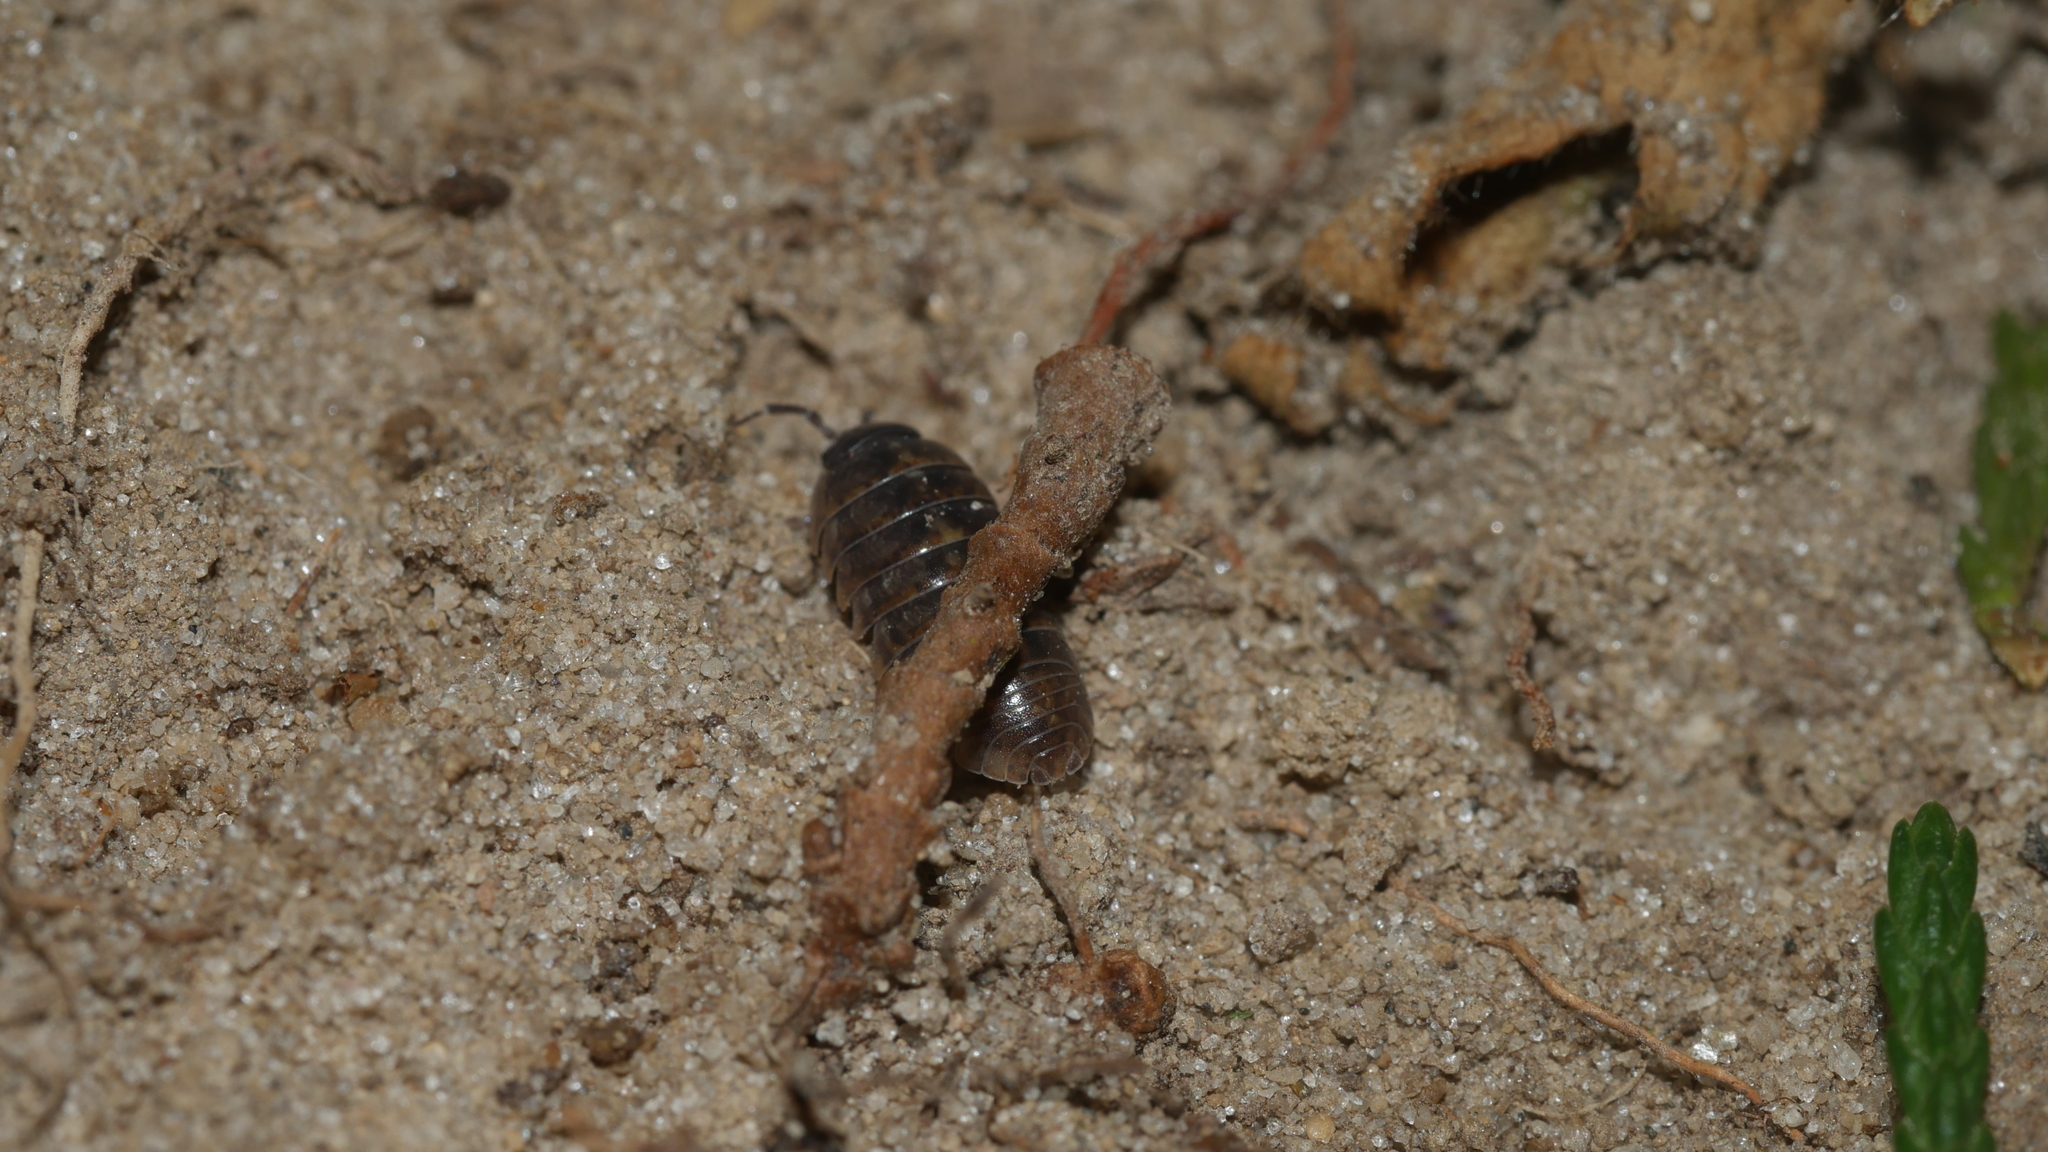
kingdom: Animalia
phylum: Arthropoda
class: Malacostraca
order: Isopoda
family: Armadillidiidae
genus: Armadillidium
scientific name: Armadillidium vulgare
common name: Common pill woodlouse
